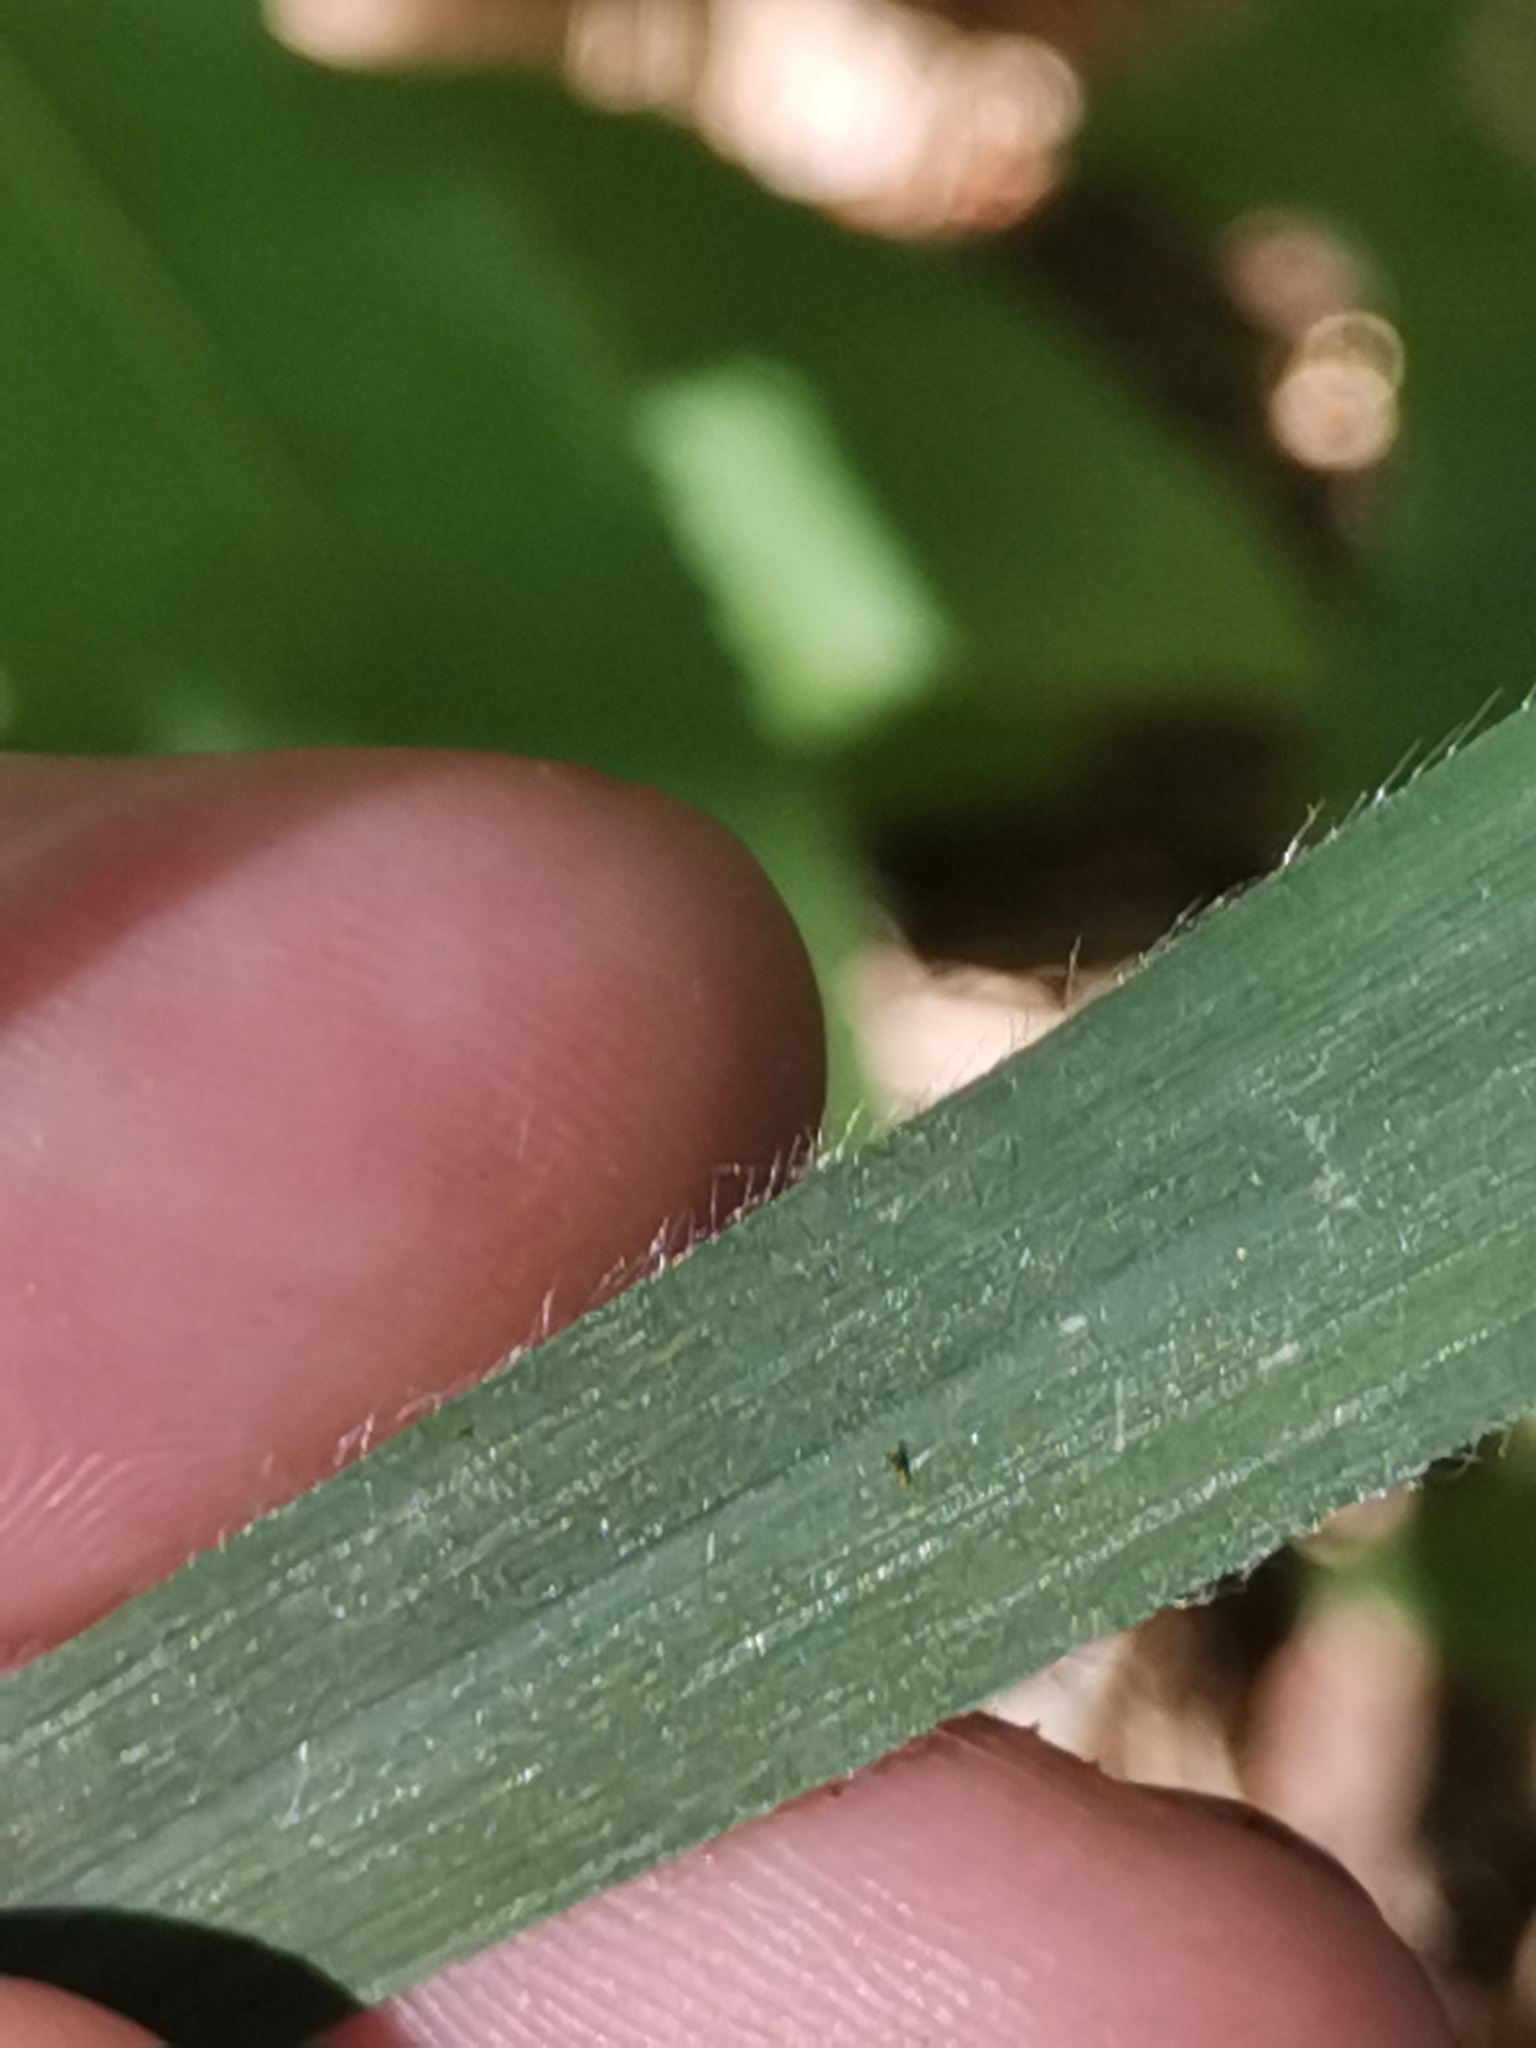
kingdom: Plantae
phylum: Tracheophyta
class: Liliopsida
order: Poales
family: Poaceae
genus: Bromus
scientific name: Bromus benekenii
